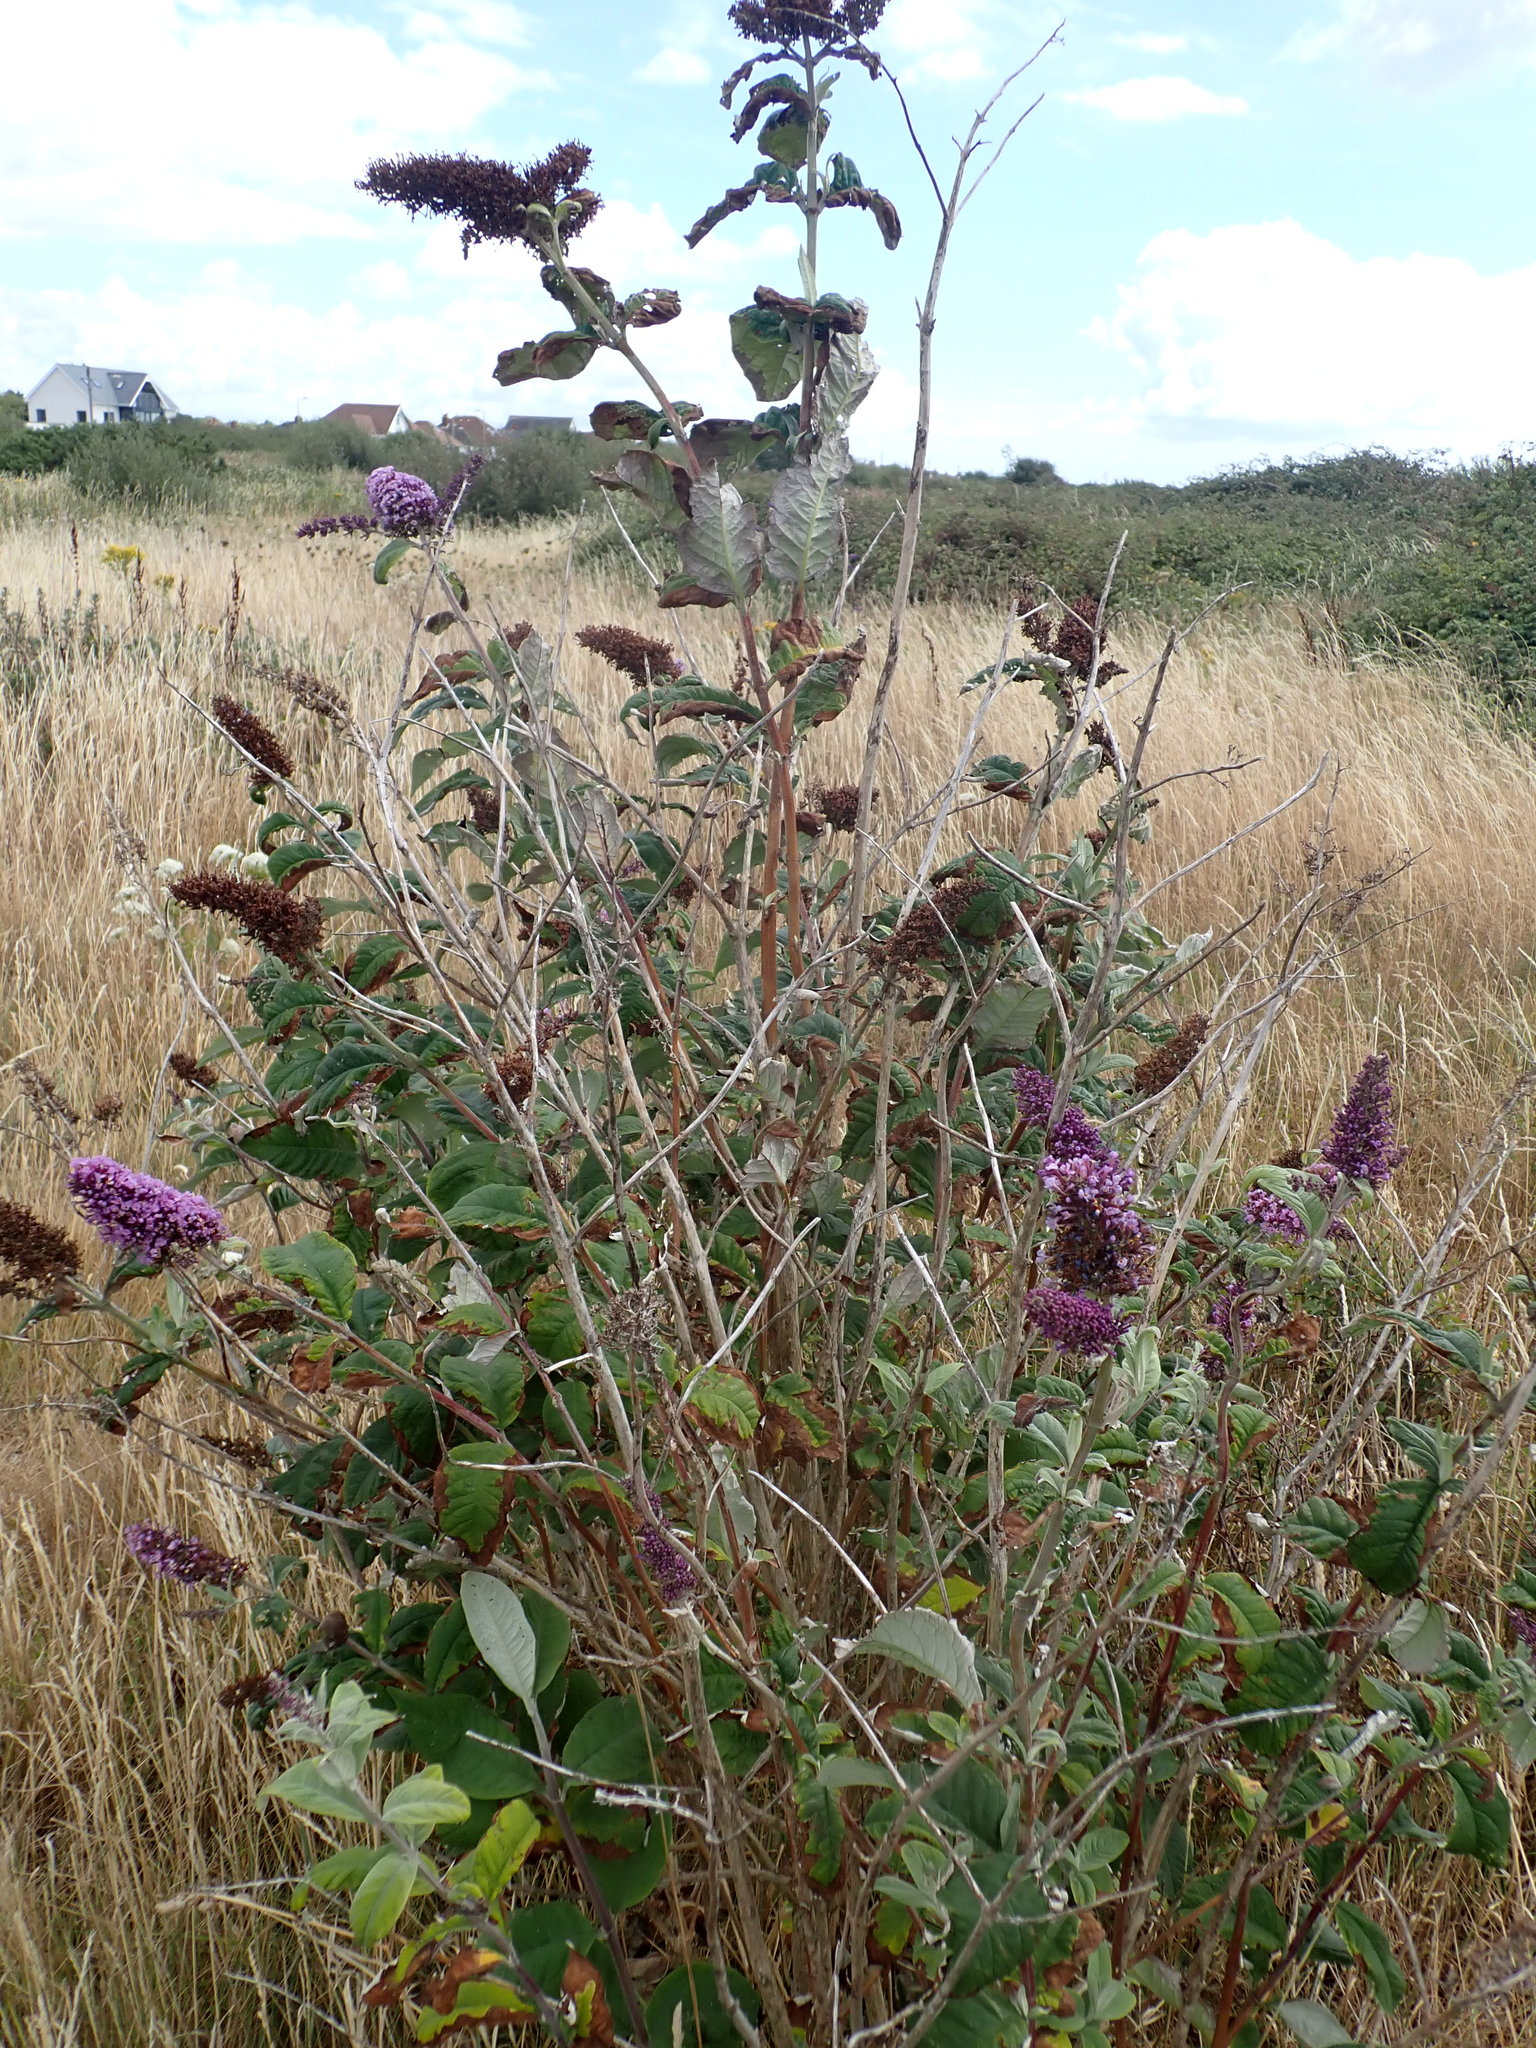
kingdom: Plantae
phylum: Tracheophyta
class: Magnoliopsida
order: Lamiales
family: Scrophulariaceae
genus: Buddleja
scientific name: Buddleja davidii
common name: Butterfly-bush
